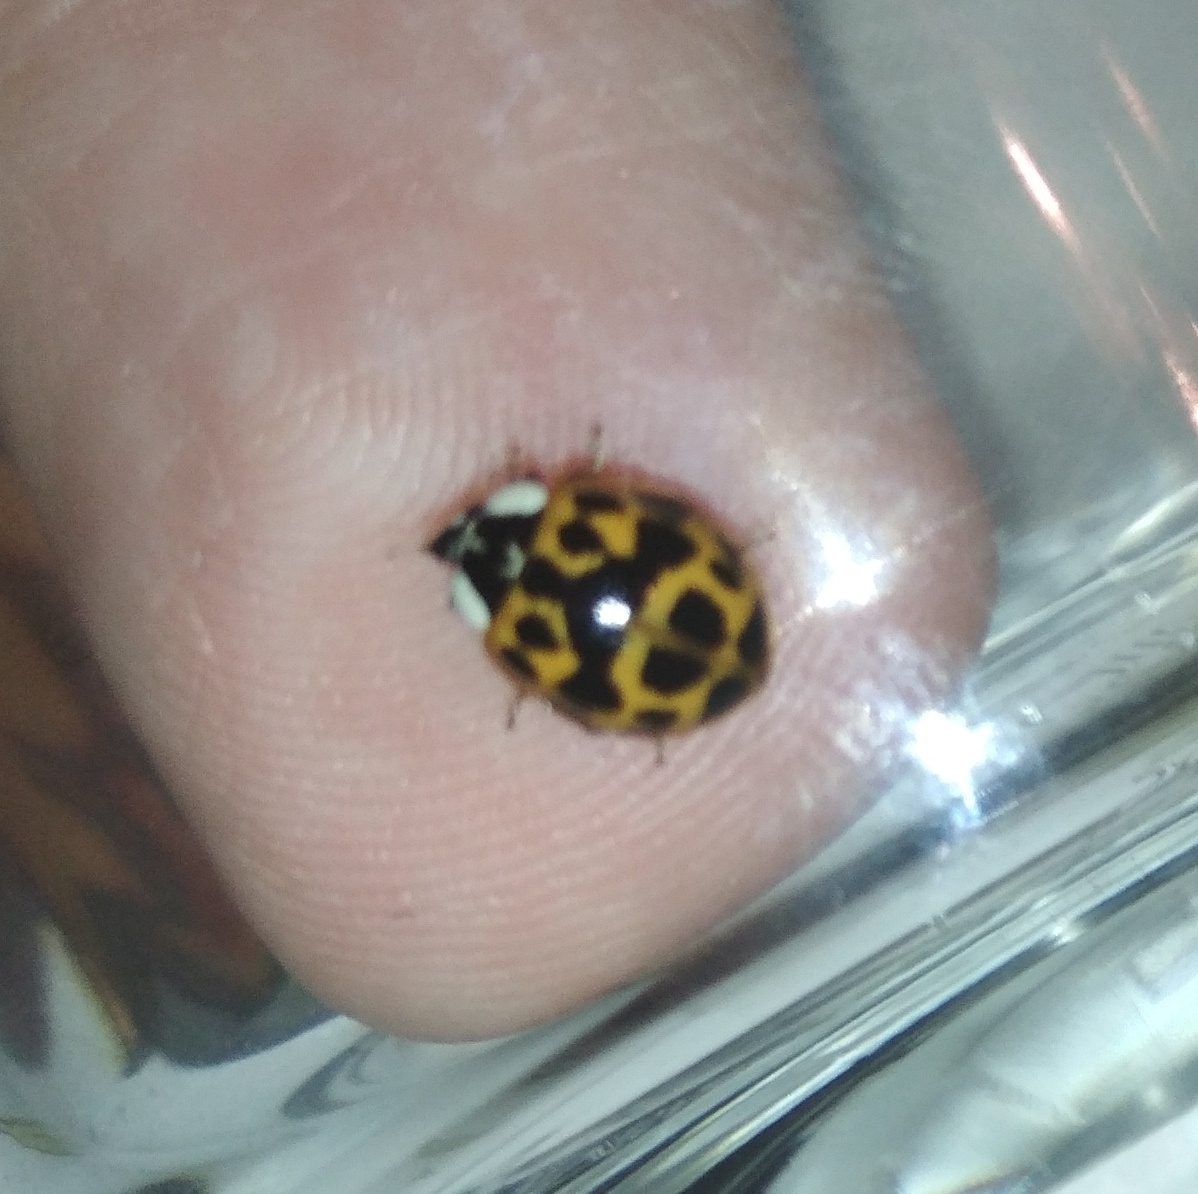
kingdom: Animalia
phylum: Arthropoda
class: Insecta
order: Coleoptera
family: Coccinellidae
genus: Harmonia
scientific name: Harmonia axyridis
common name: Harlequin ladybird
